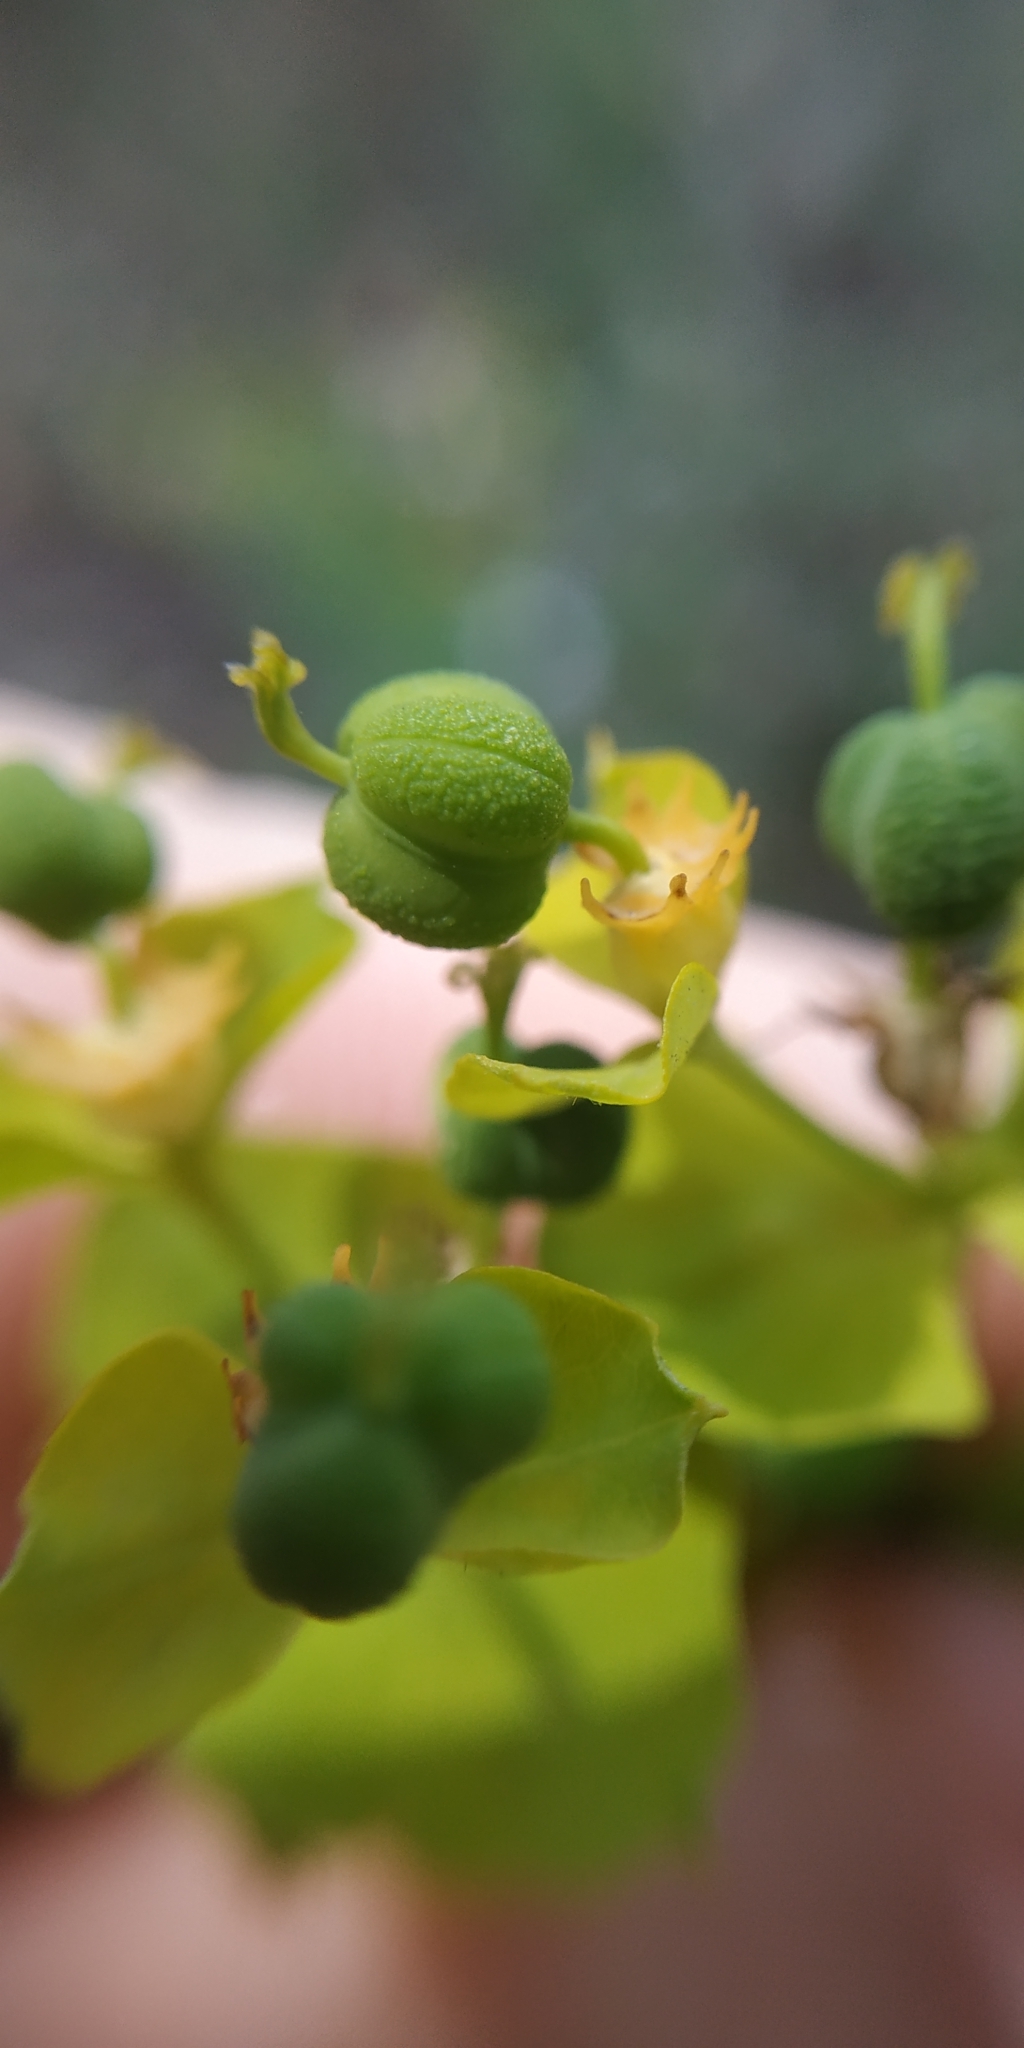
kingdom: Plantae
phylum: Tracheophyta
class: Magnoliopsida
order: Malpighiales
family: Euphorbiaceae
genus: Euphorbia
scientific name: Euphorbia virgata
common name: Leafy spurge
